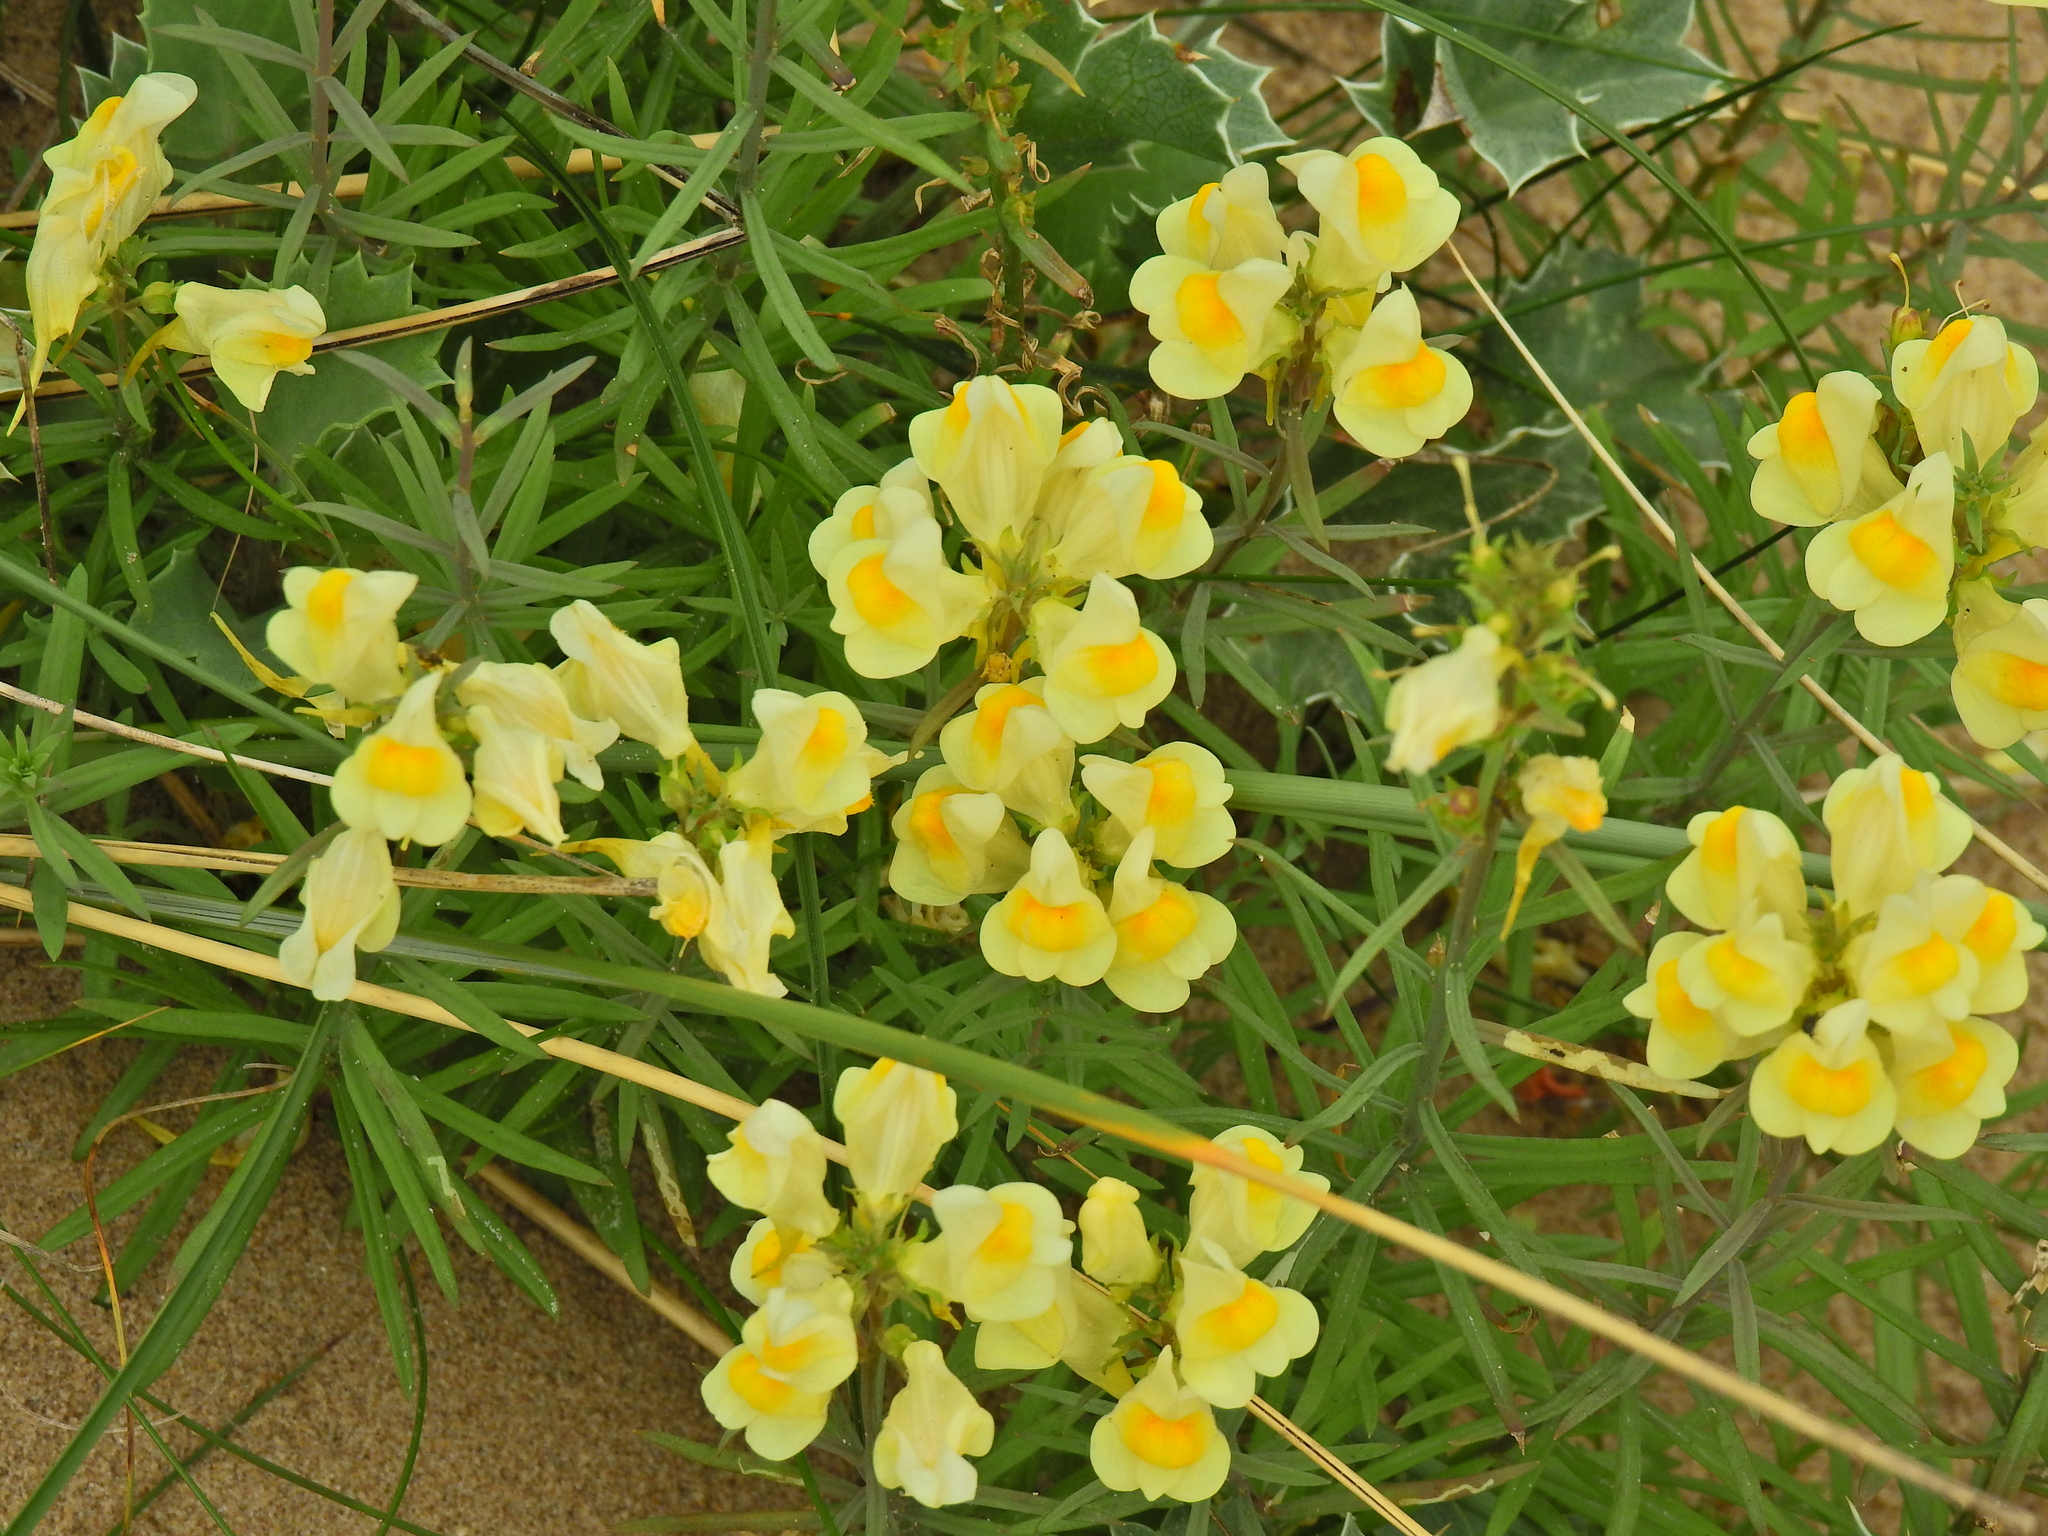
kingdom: Plantae
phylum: Tracheophyta
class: Magnoliopsida
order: Lamiales
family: Plantaginaceae
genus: Linaria
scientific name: Linaria vulgaris
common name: Butter and eggs
